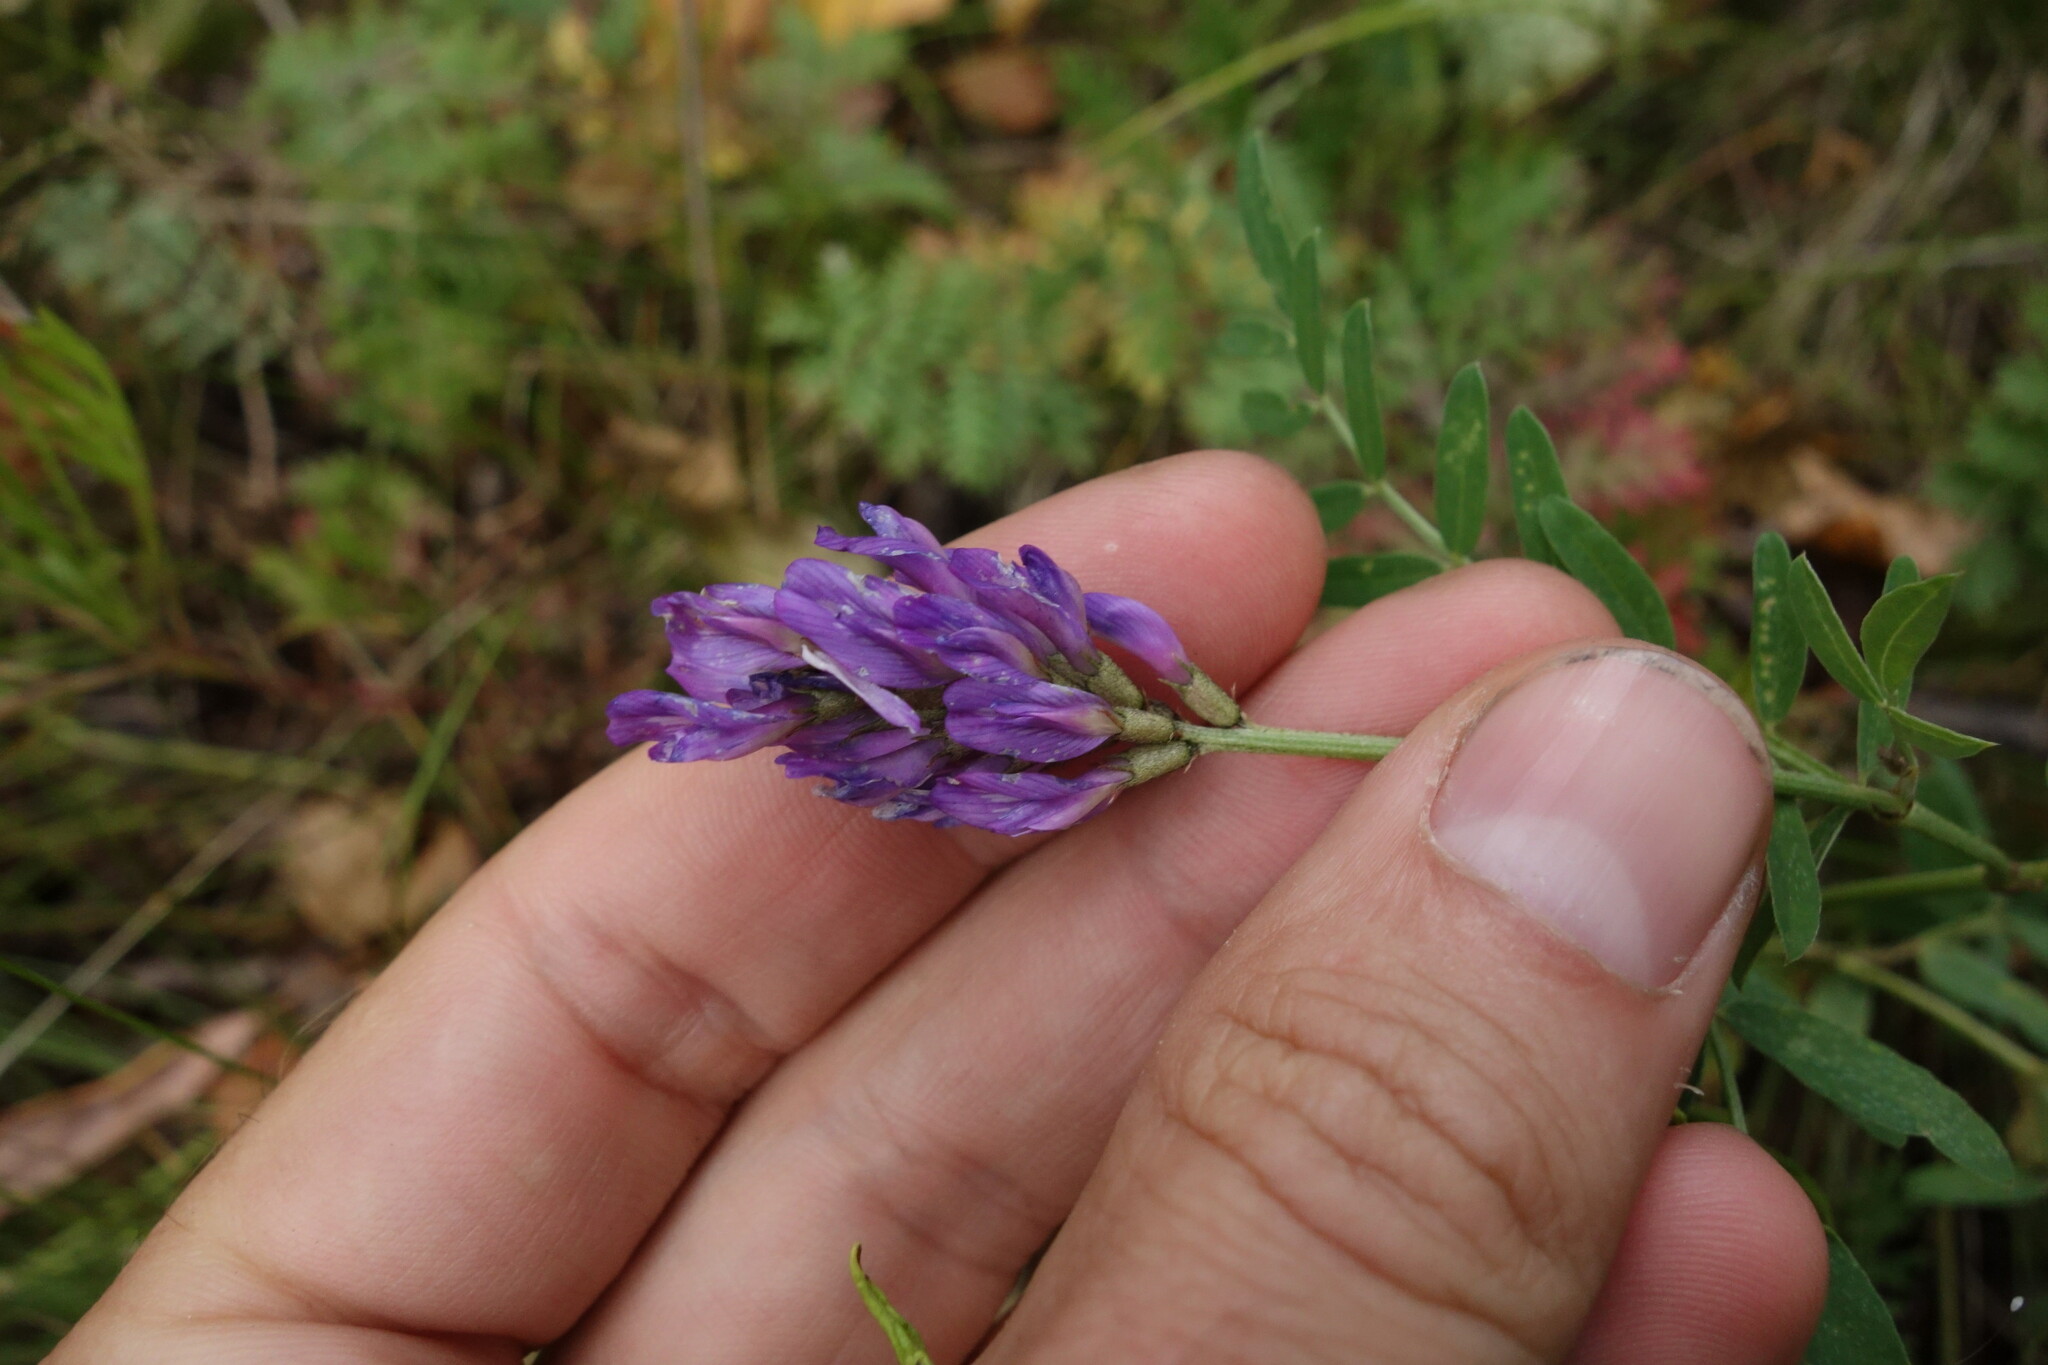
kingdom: Plantae
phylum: Tracheophyta
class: Magnoliopsida
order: Fabales
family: Fabaceae
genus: Astragalus
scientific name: Astragalus laxmannii
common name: Laxmann's milk-vetch
